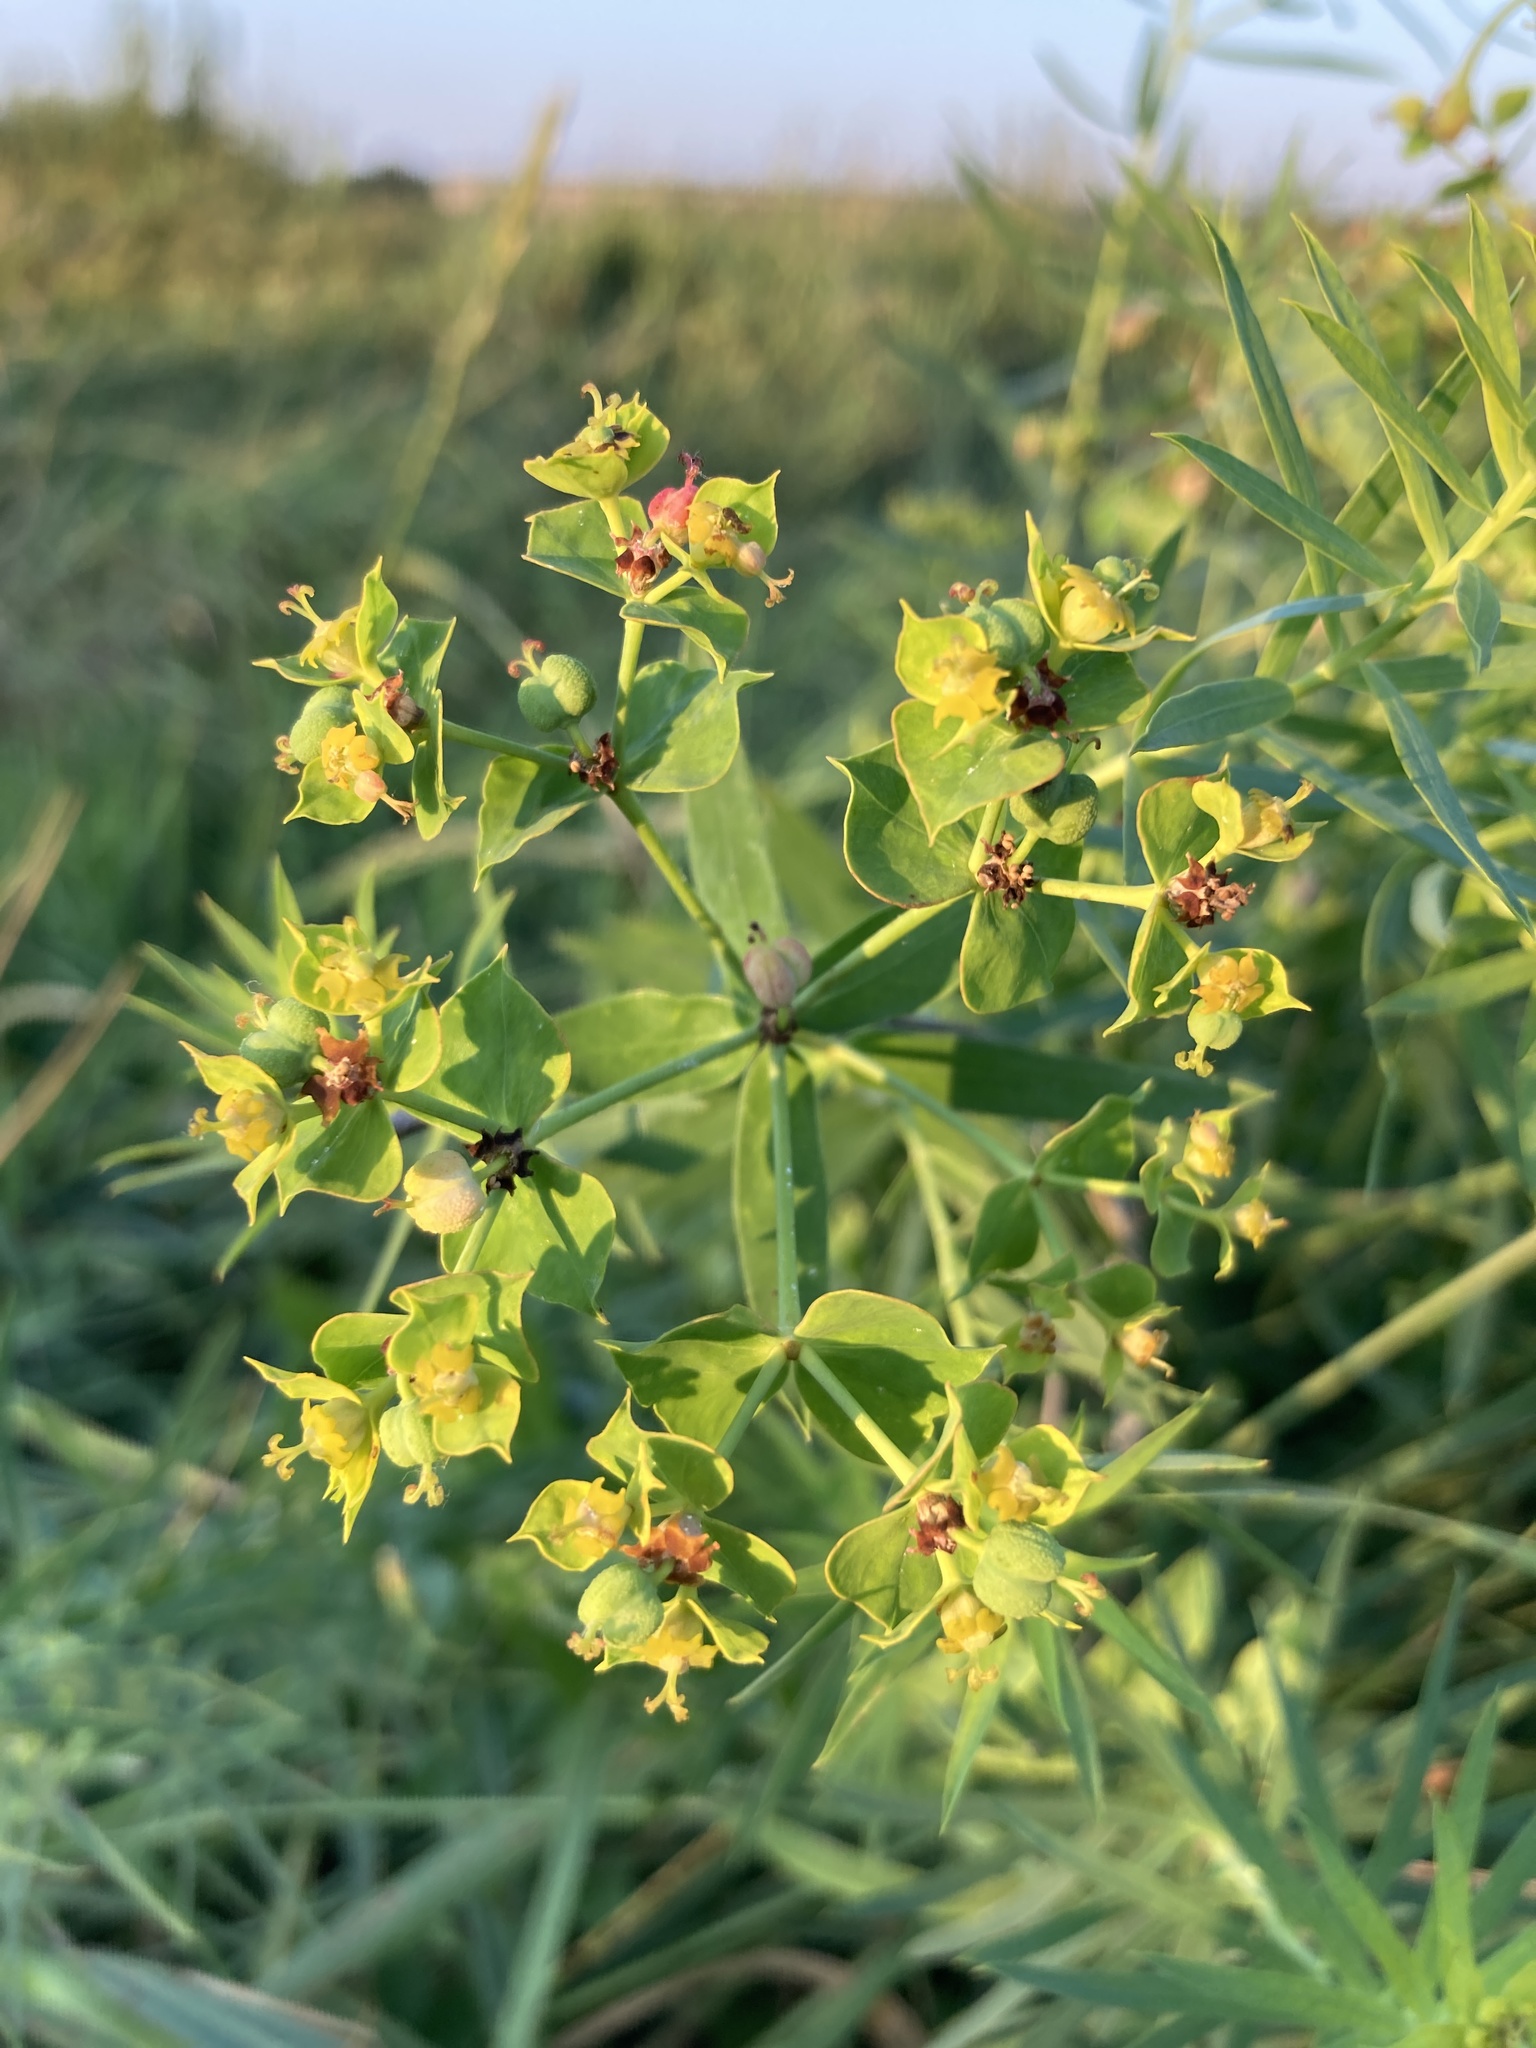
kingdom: Plantae
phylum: Tracheophyta
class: Magnoliopsida
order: Malpighiales
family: Euphorbiaceae
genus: Euphorbia
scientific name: Euphorbia virgata
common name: Leafy spurge
